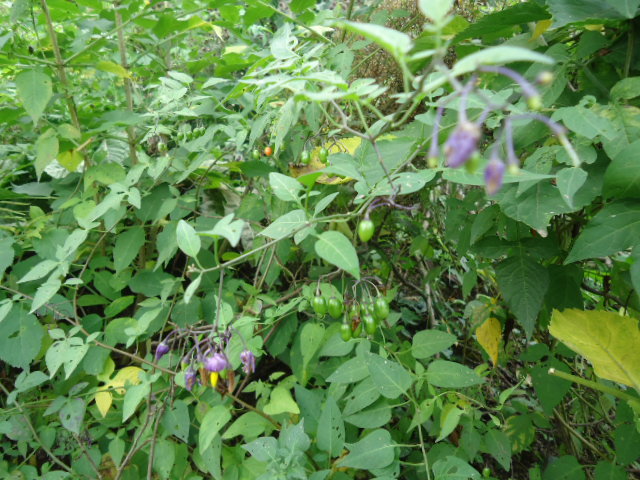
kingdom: Plantae
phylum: Tracheophyta
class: Magnoliopsida
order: Solanales
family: Solanaceae
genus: Solanum
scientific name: Solanum dulcamara
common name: Climbing nightshade
